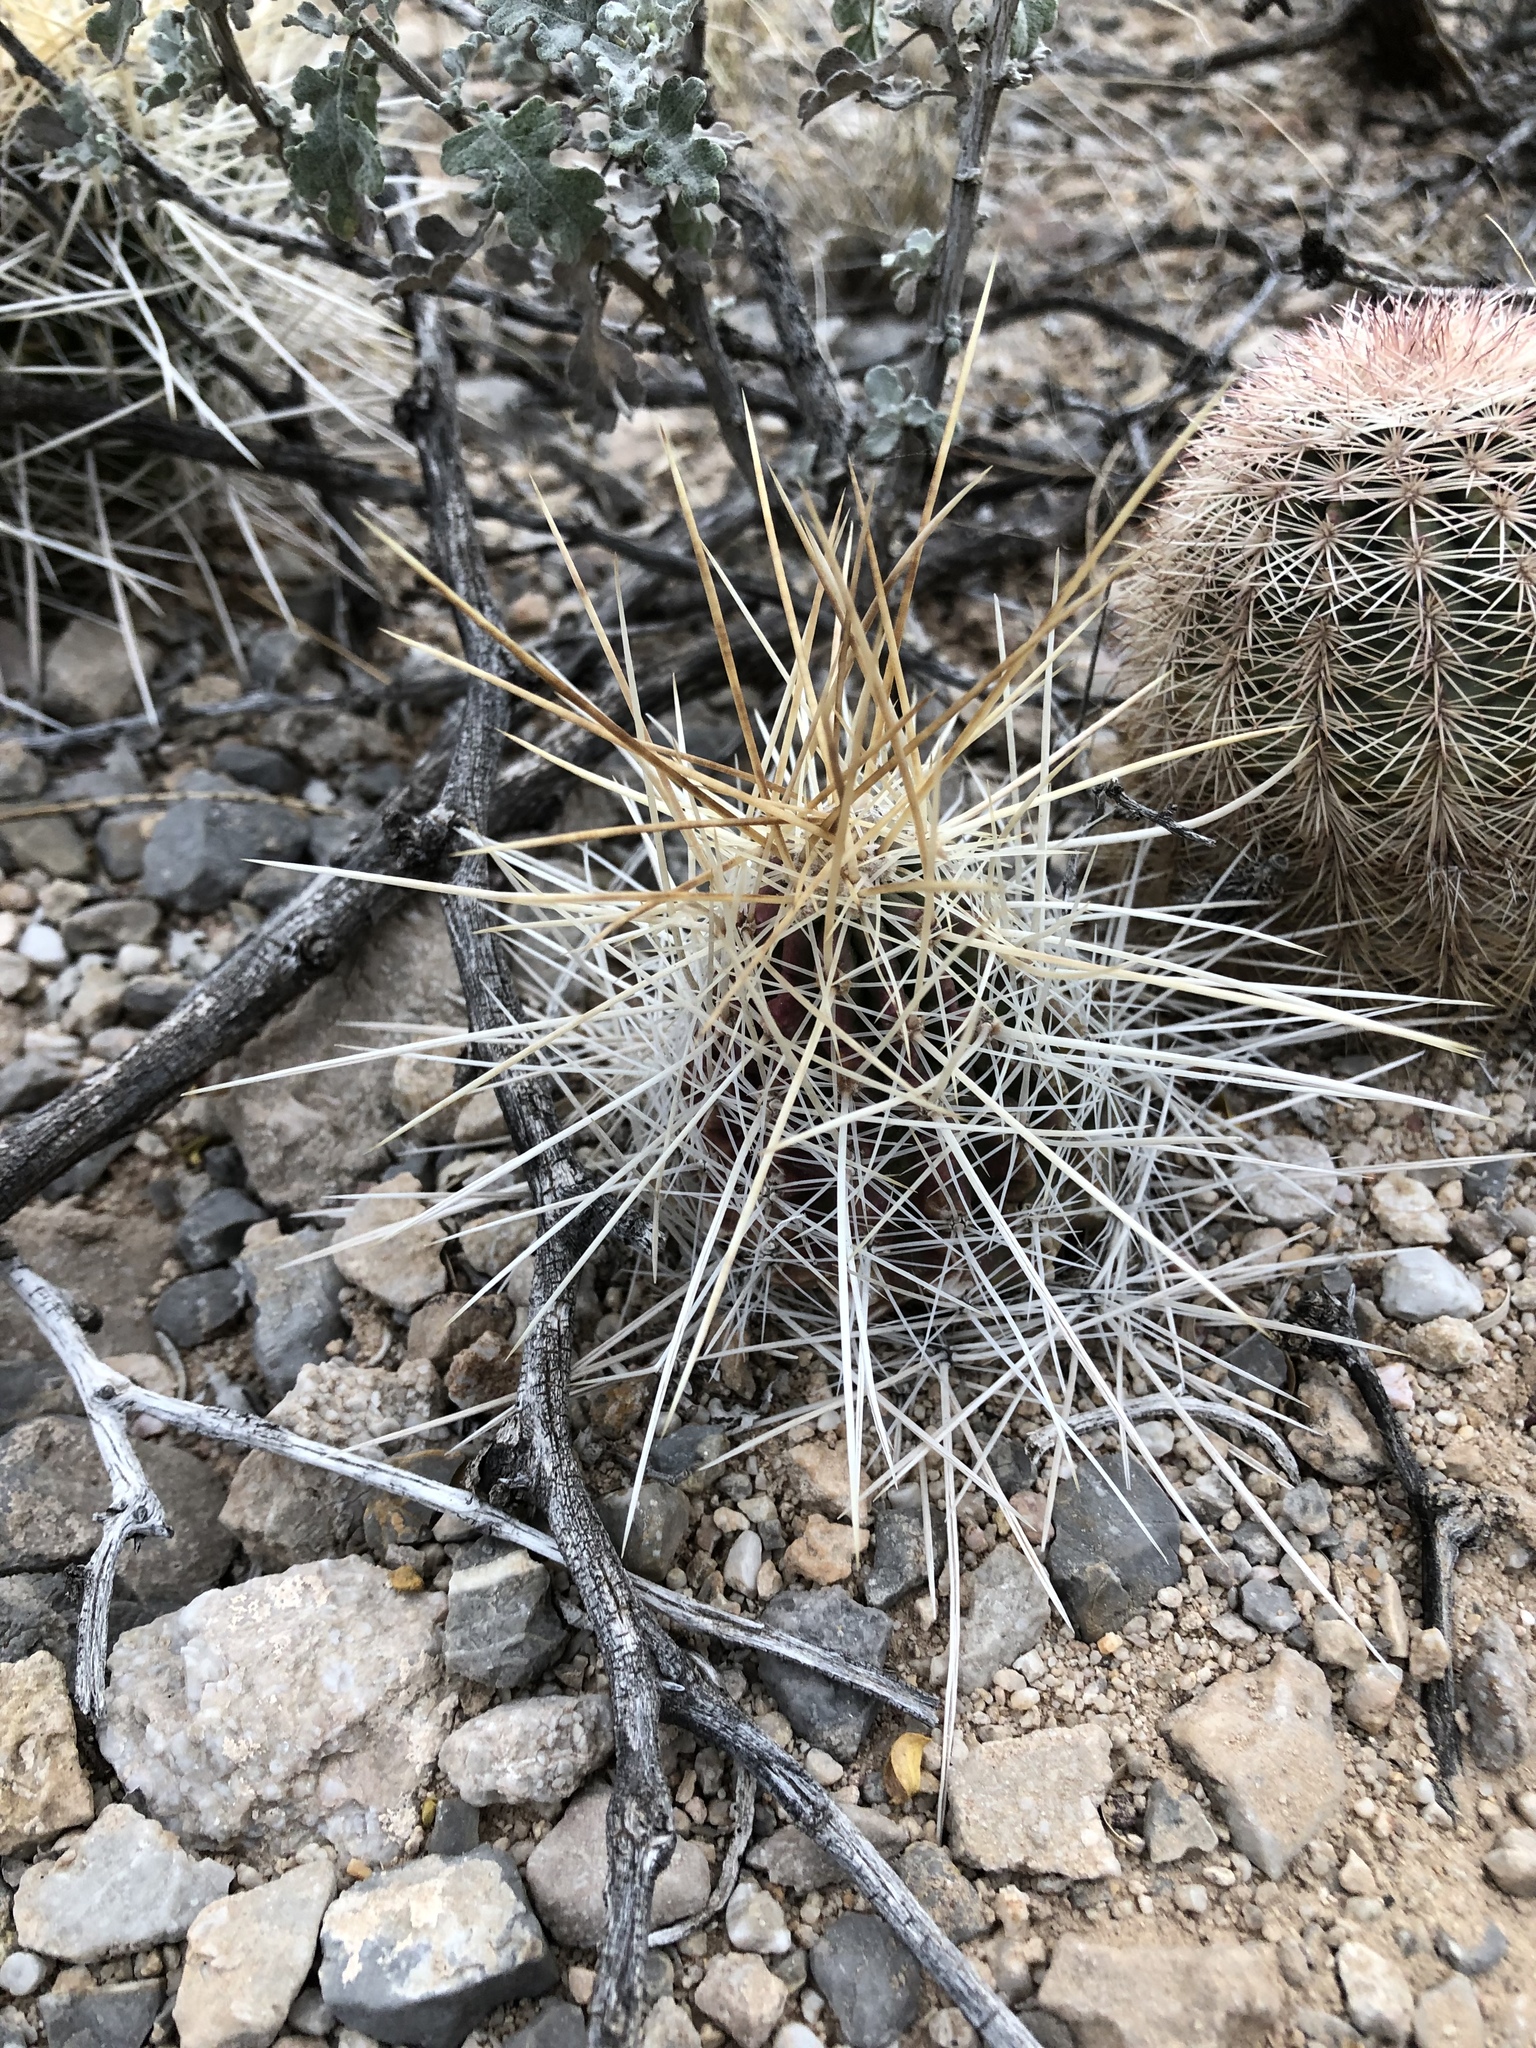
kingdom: Plantae
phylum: Tracheophyta
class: Magnoliopsida
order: Caryophyllales
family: Cactaceae
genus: Echinocereus
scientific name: Echinocereus stramineus
